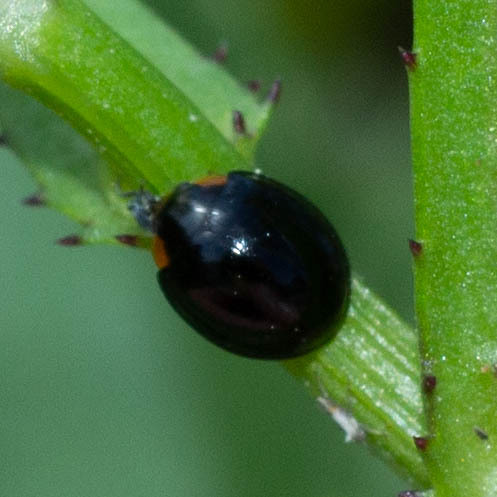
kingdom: Animalia
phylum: Arthropoda
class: Insecta
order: Coleoptera
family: Coccinellidae
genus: Parexochomus
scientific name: Parexochomus nigromaculatus
